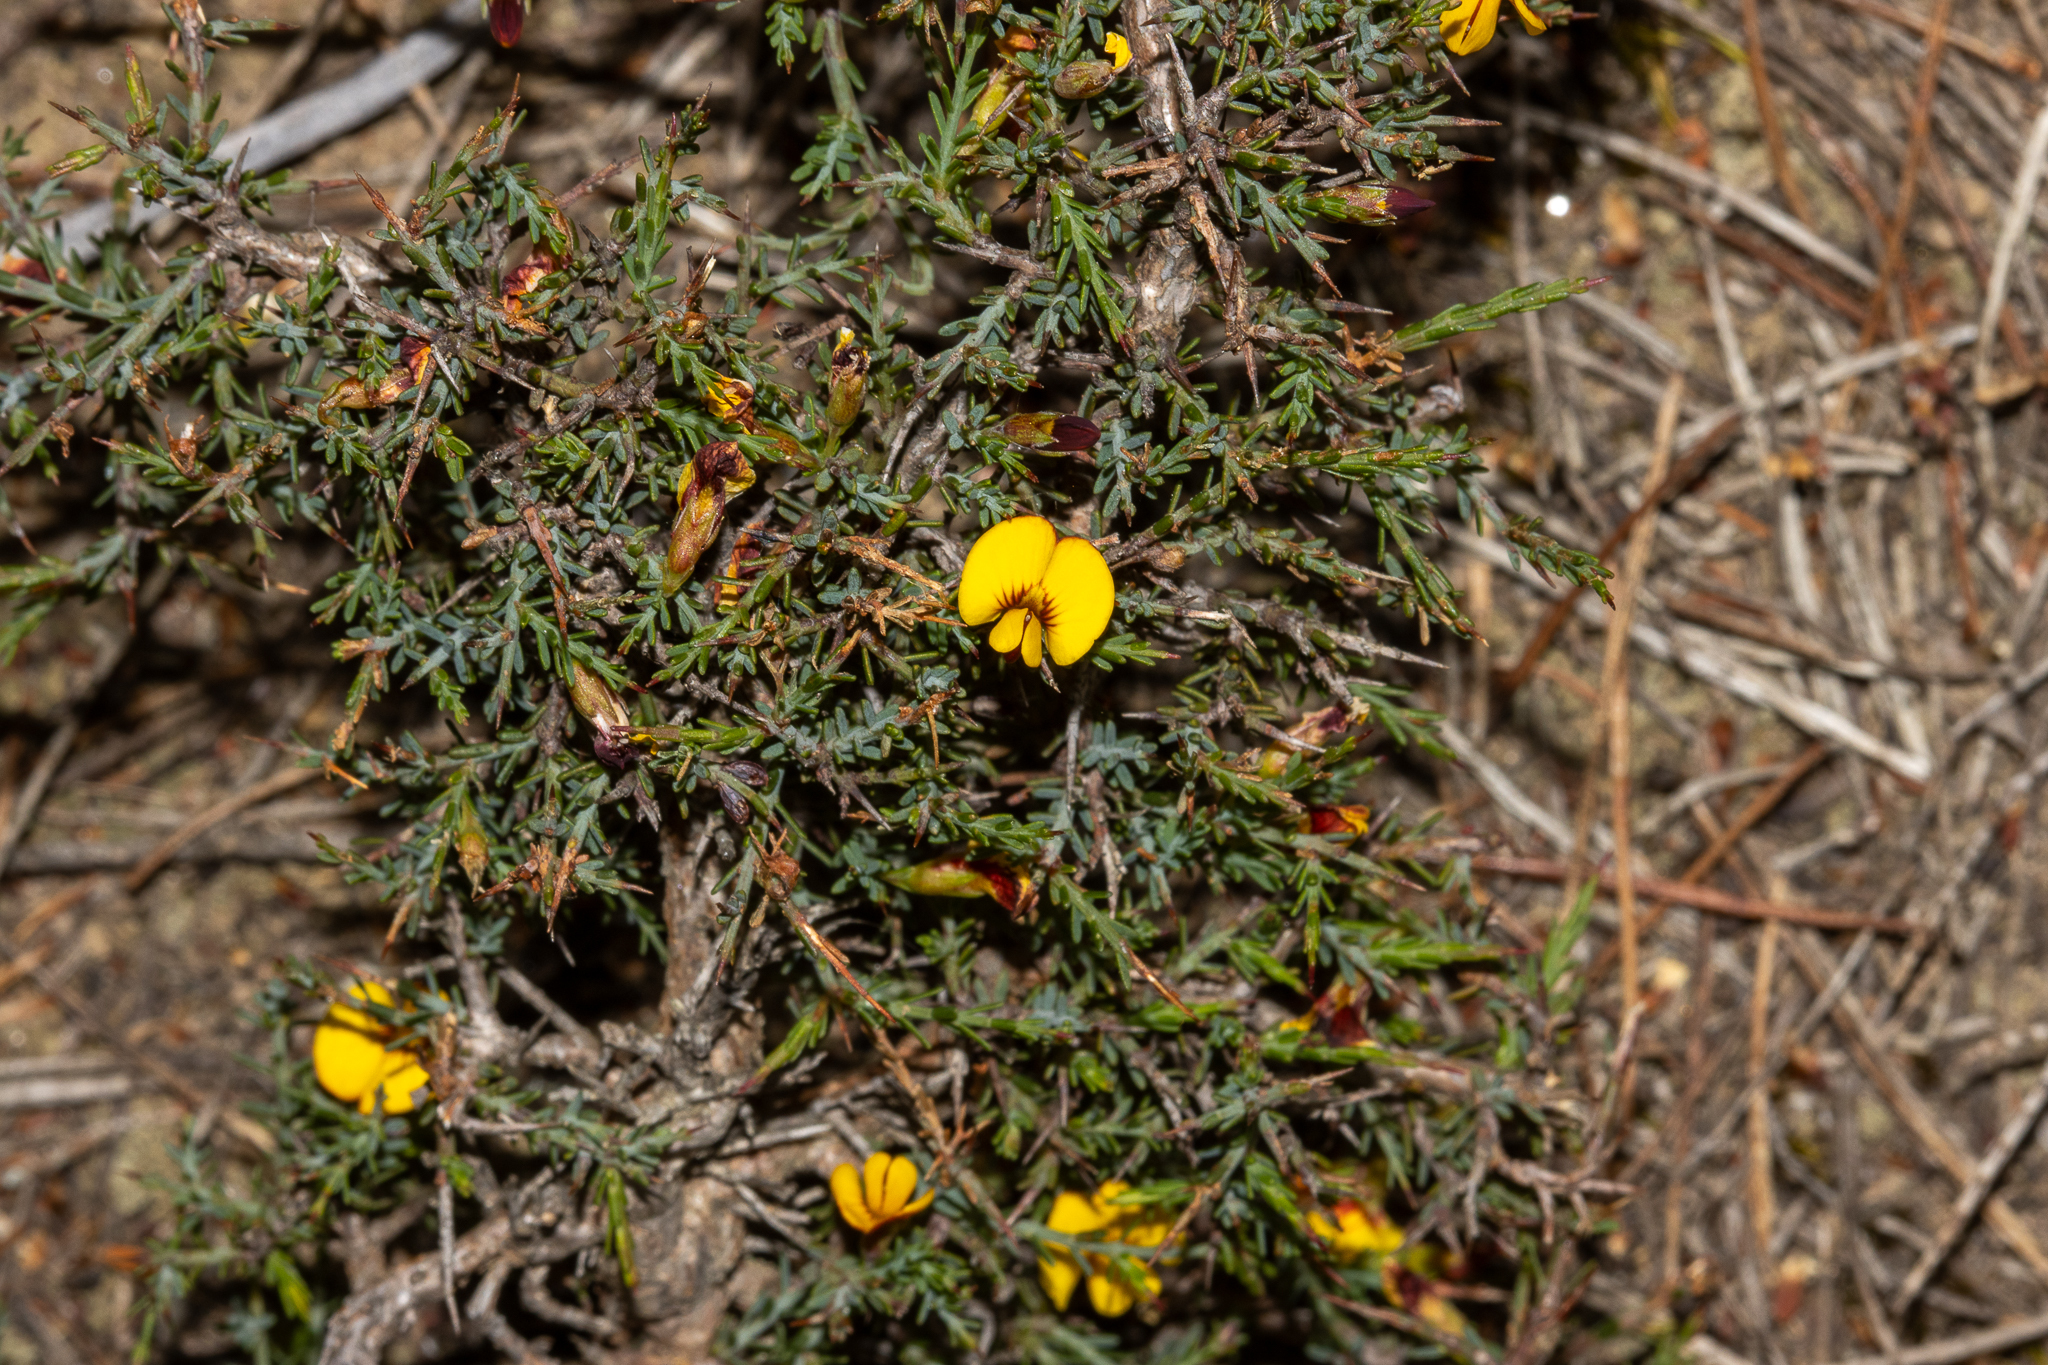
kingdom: Plantae
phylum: Tracheophyta
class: Magnoliopsida
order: Fabales
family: Fabaceae
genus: Eutaxia
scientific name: Eutaxia microphylla
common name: Mallee bush-pea
